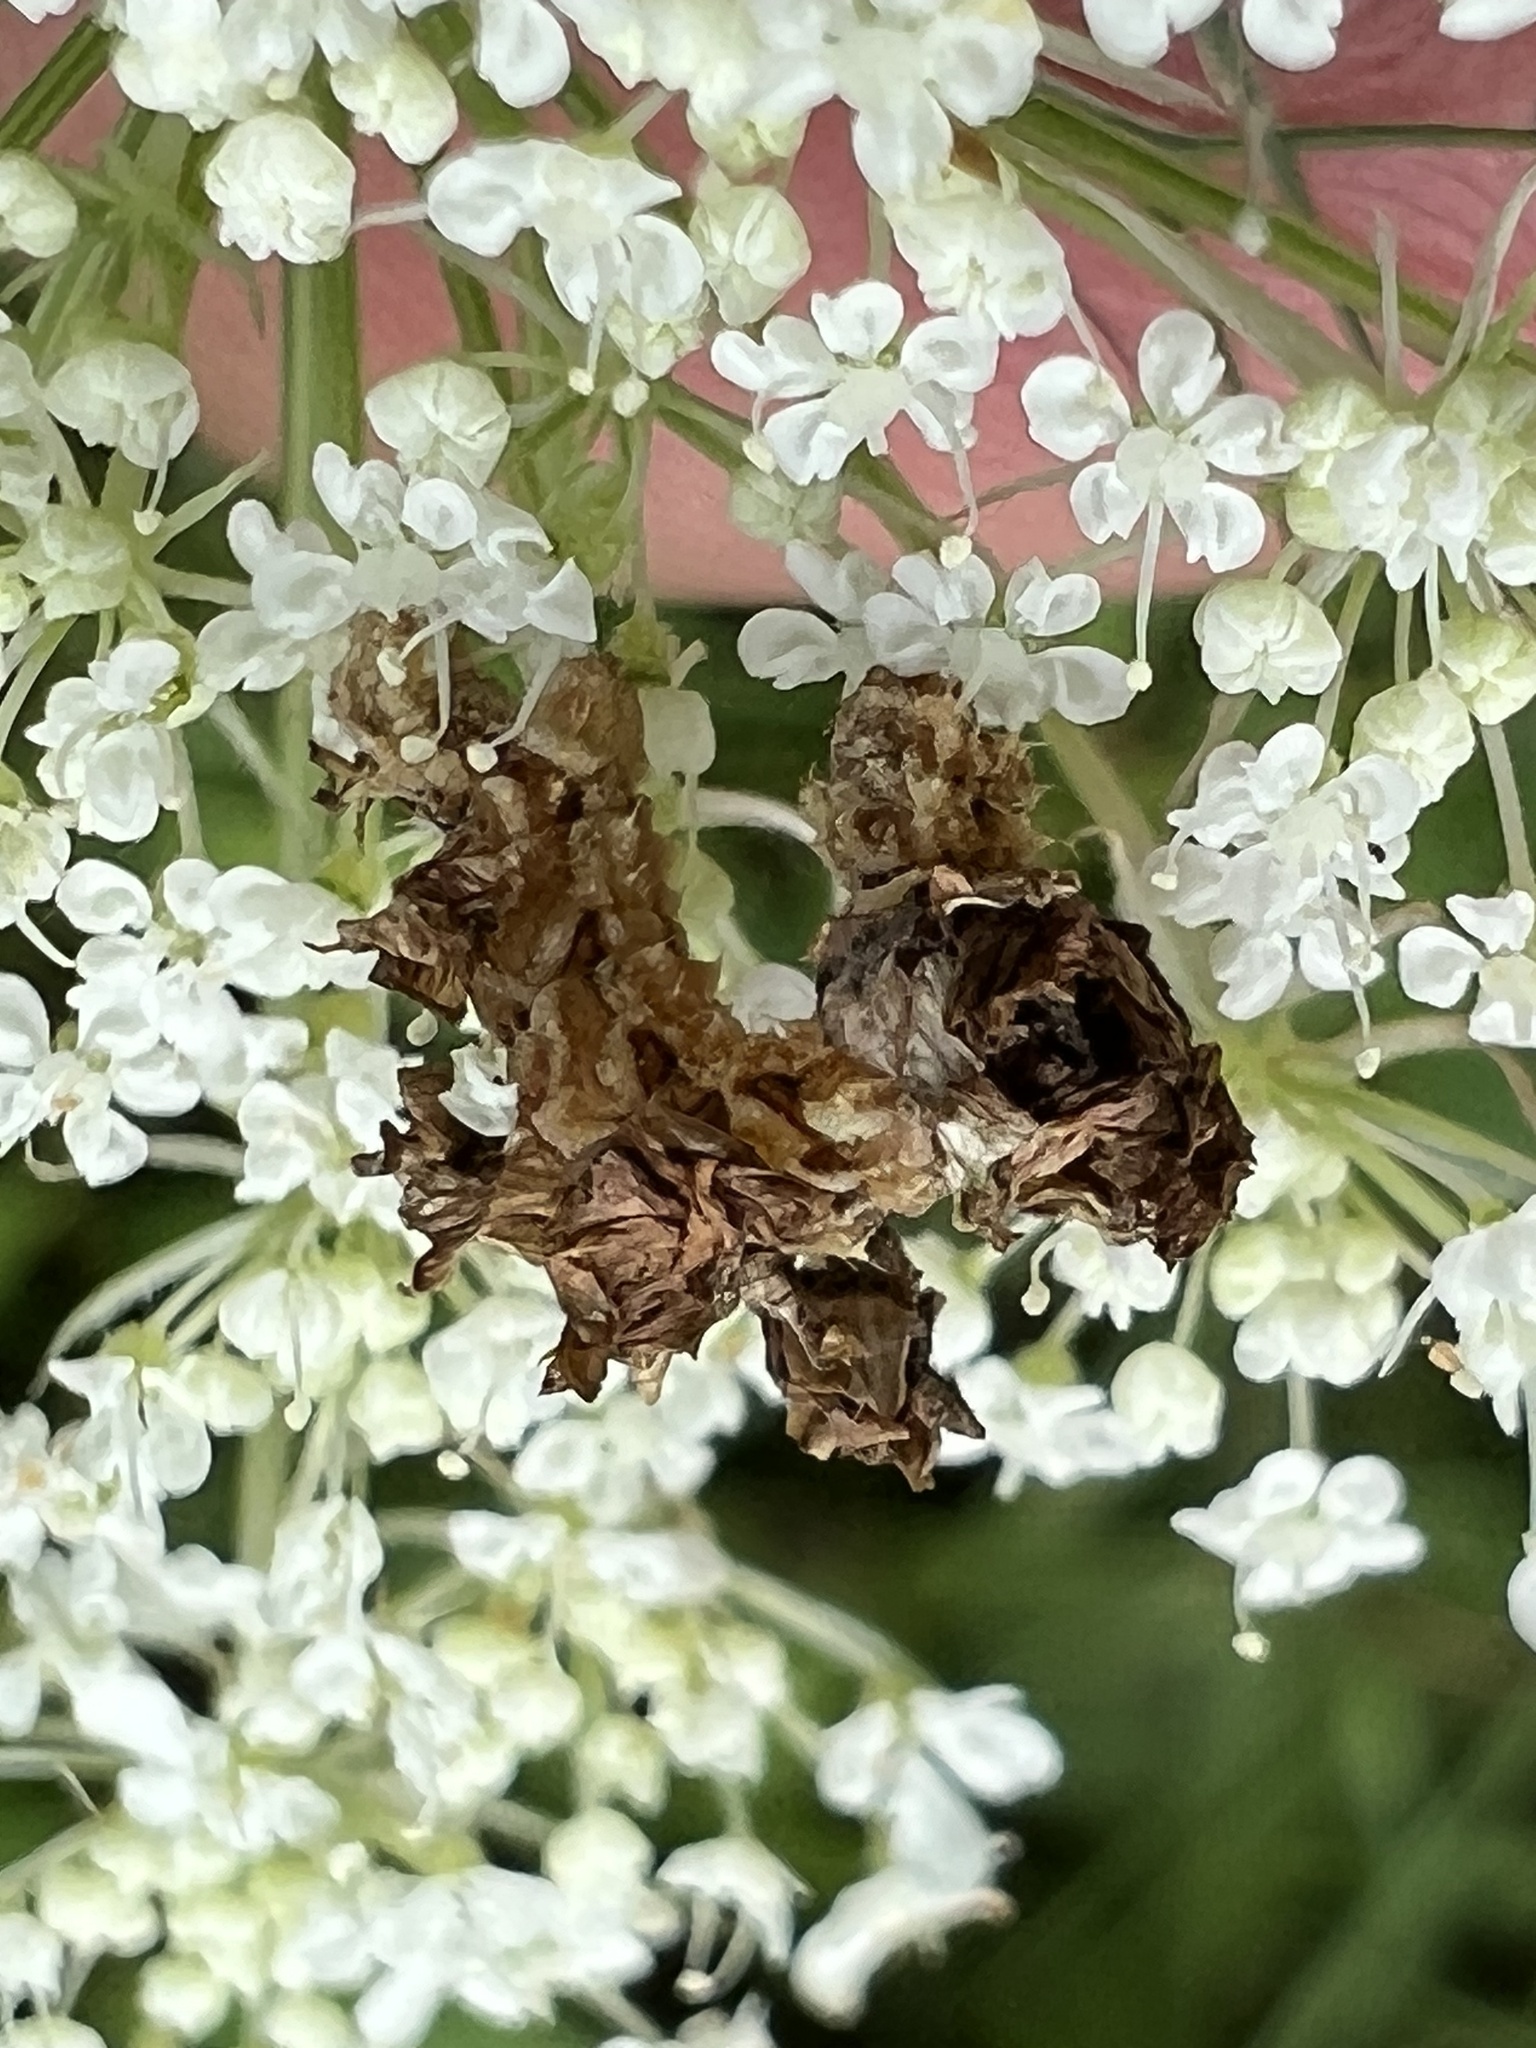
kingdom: Animalia
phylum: Arthropoda
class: Insecta
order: Lepidoptera
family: Geometridae
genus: Synchlora
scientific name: Synchlora
